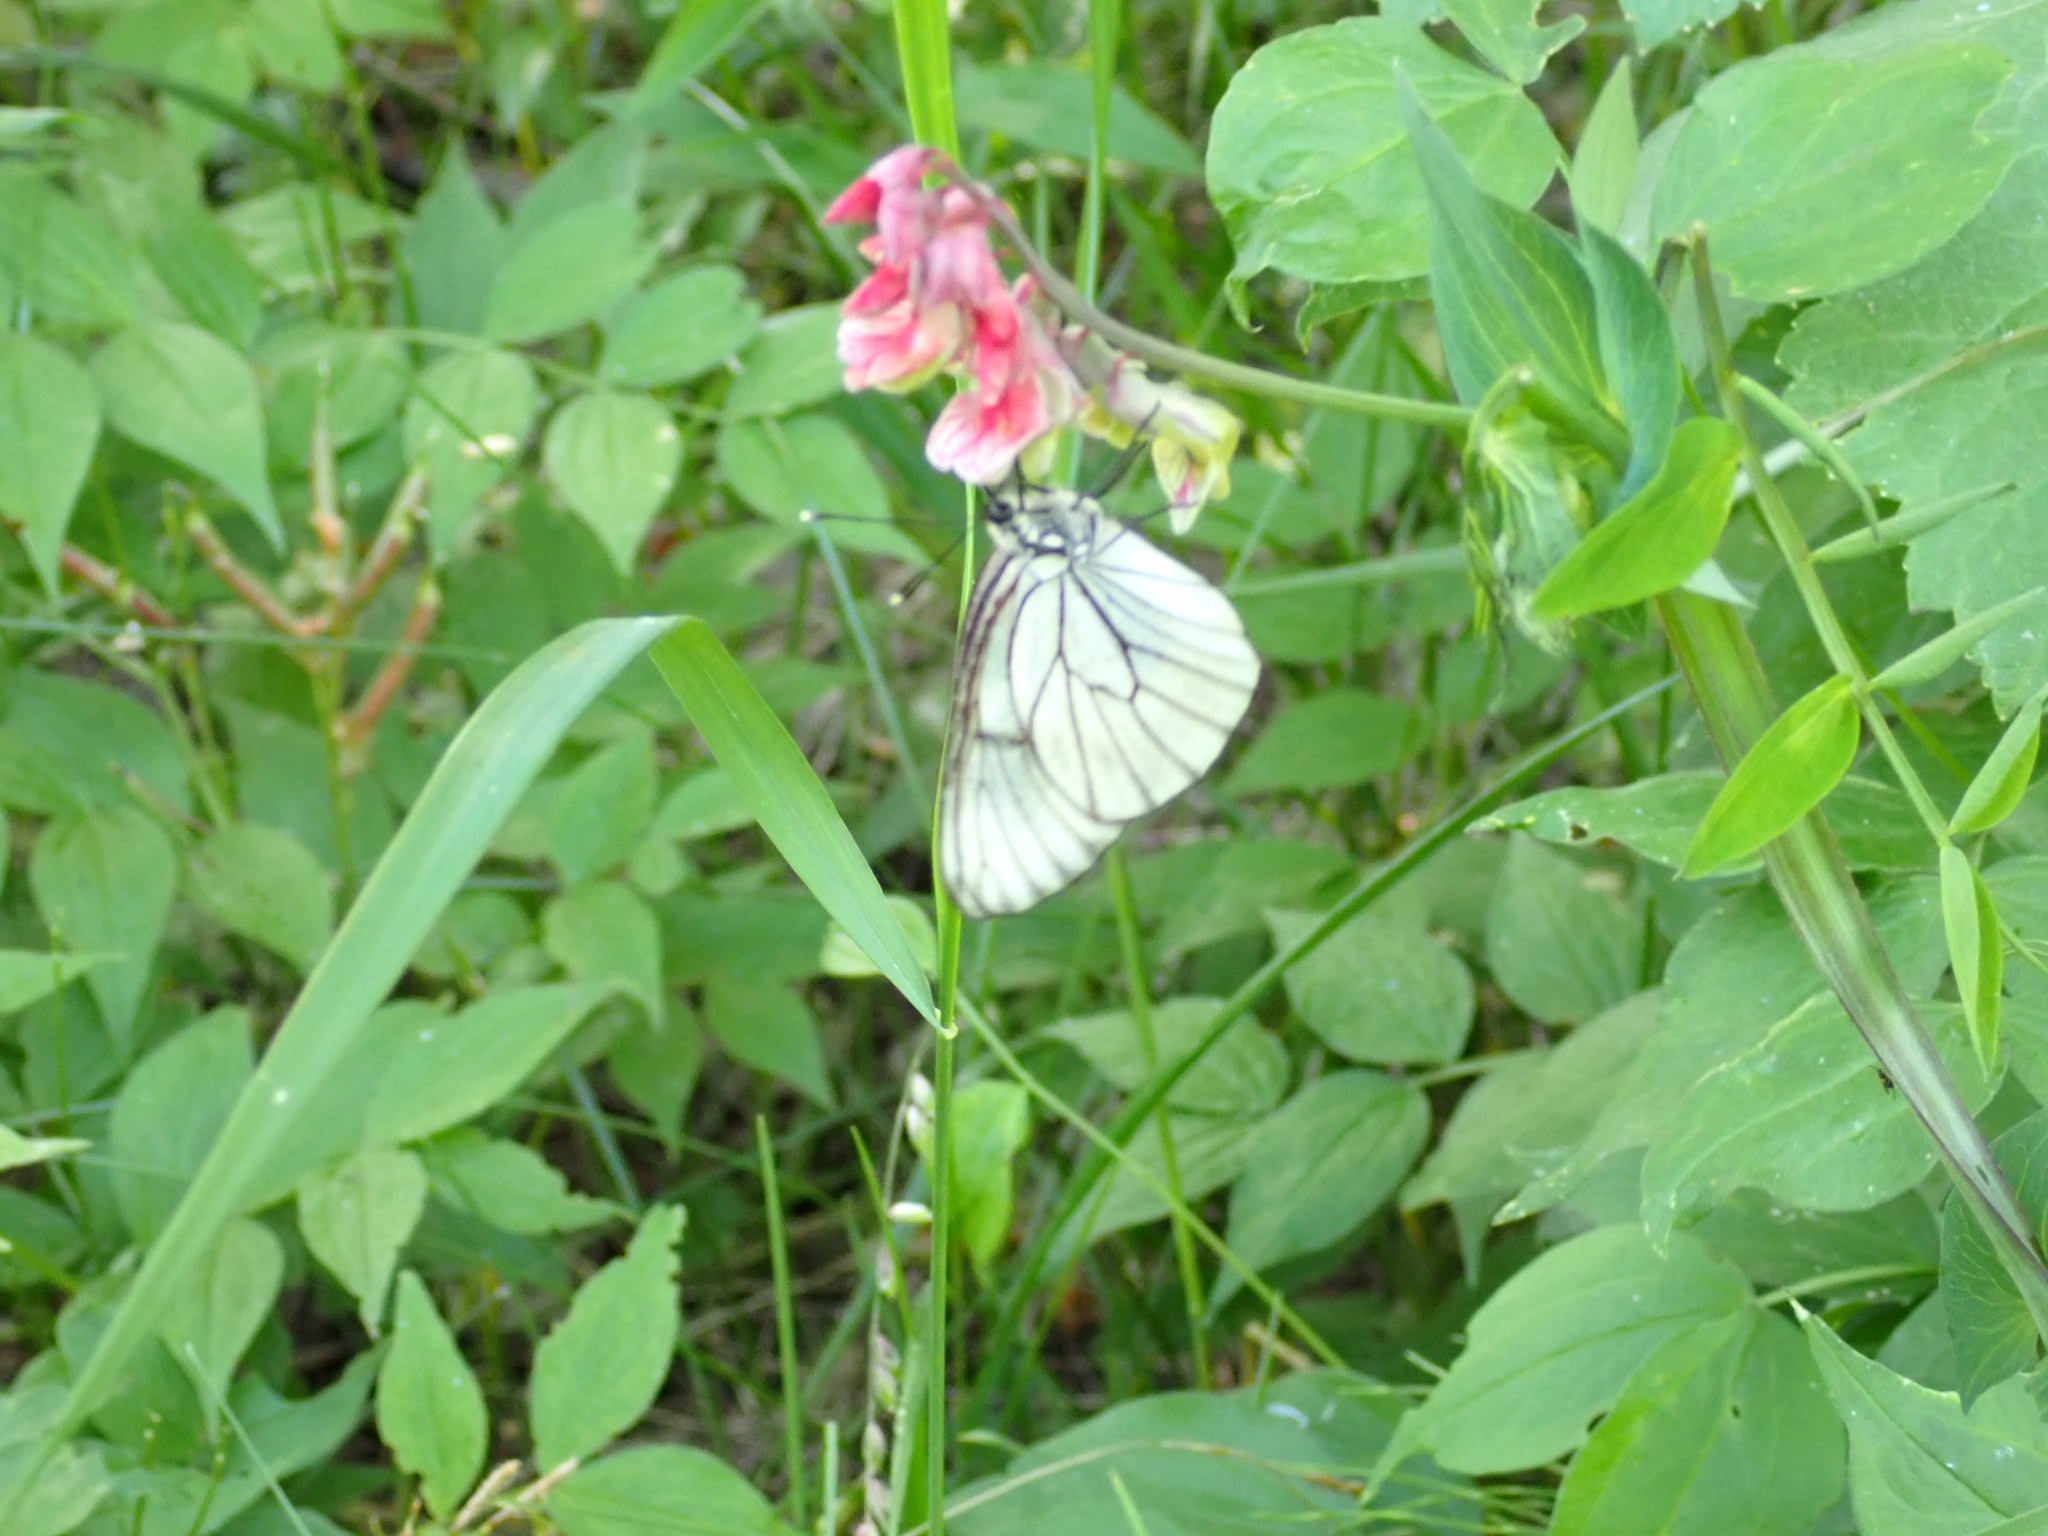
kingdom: Animalia
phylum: Arthropoda
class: Insecta
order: Lepidoptera
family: Pieridae
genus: Aporia
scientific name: Aporia crataegi
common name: Black-veined white
